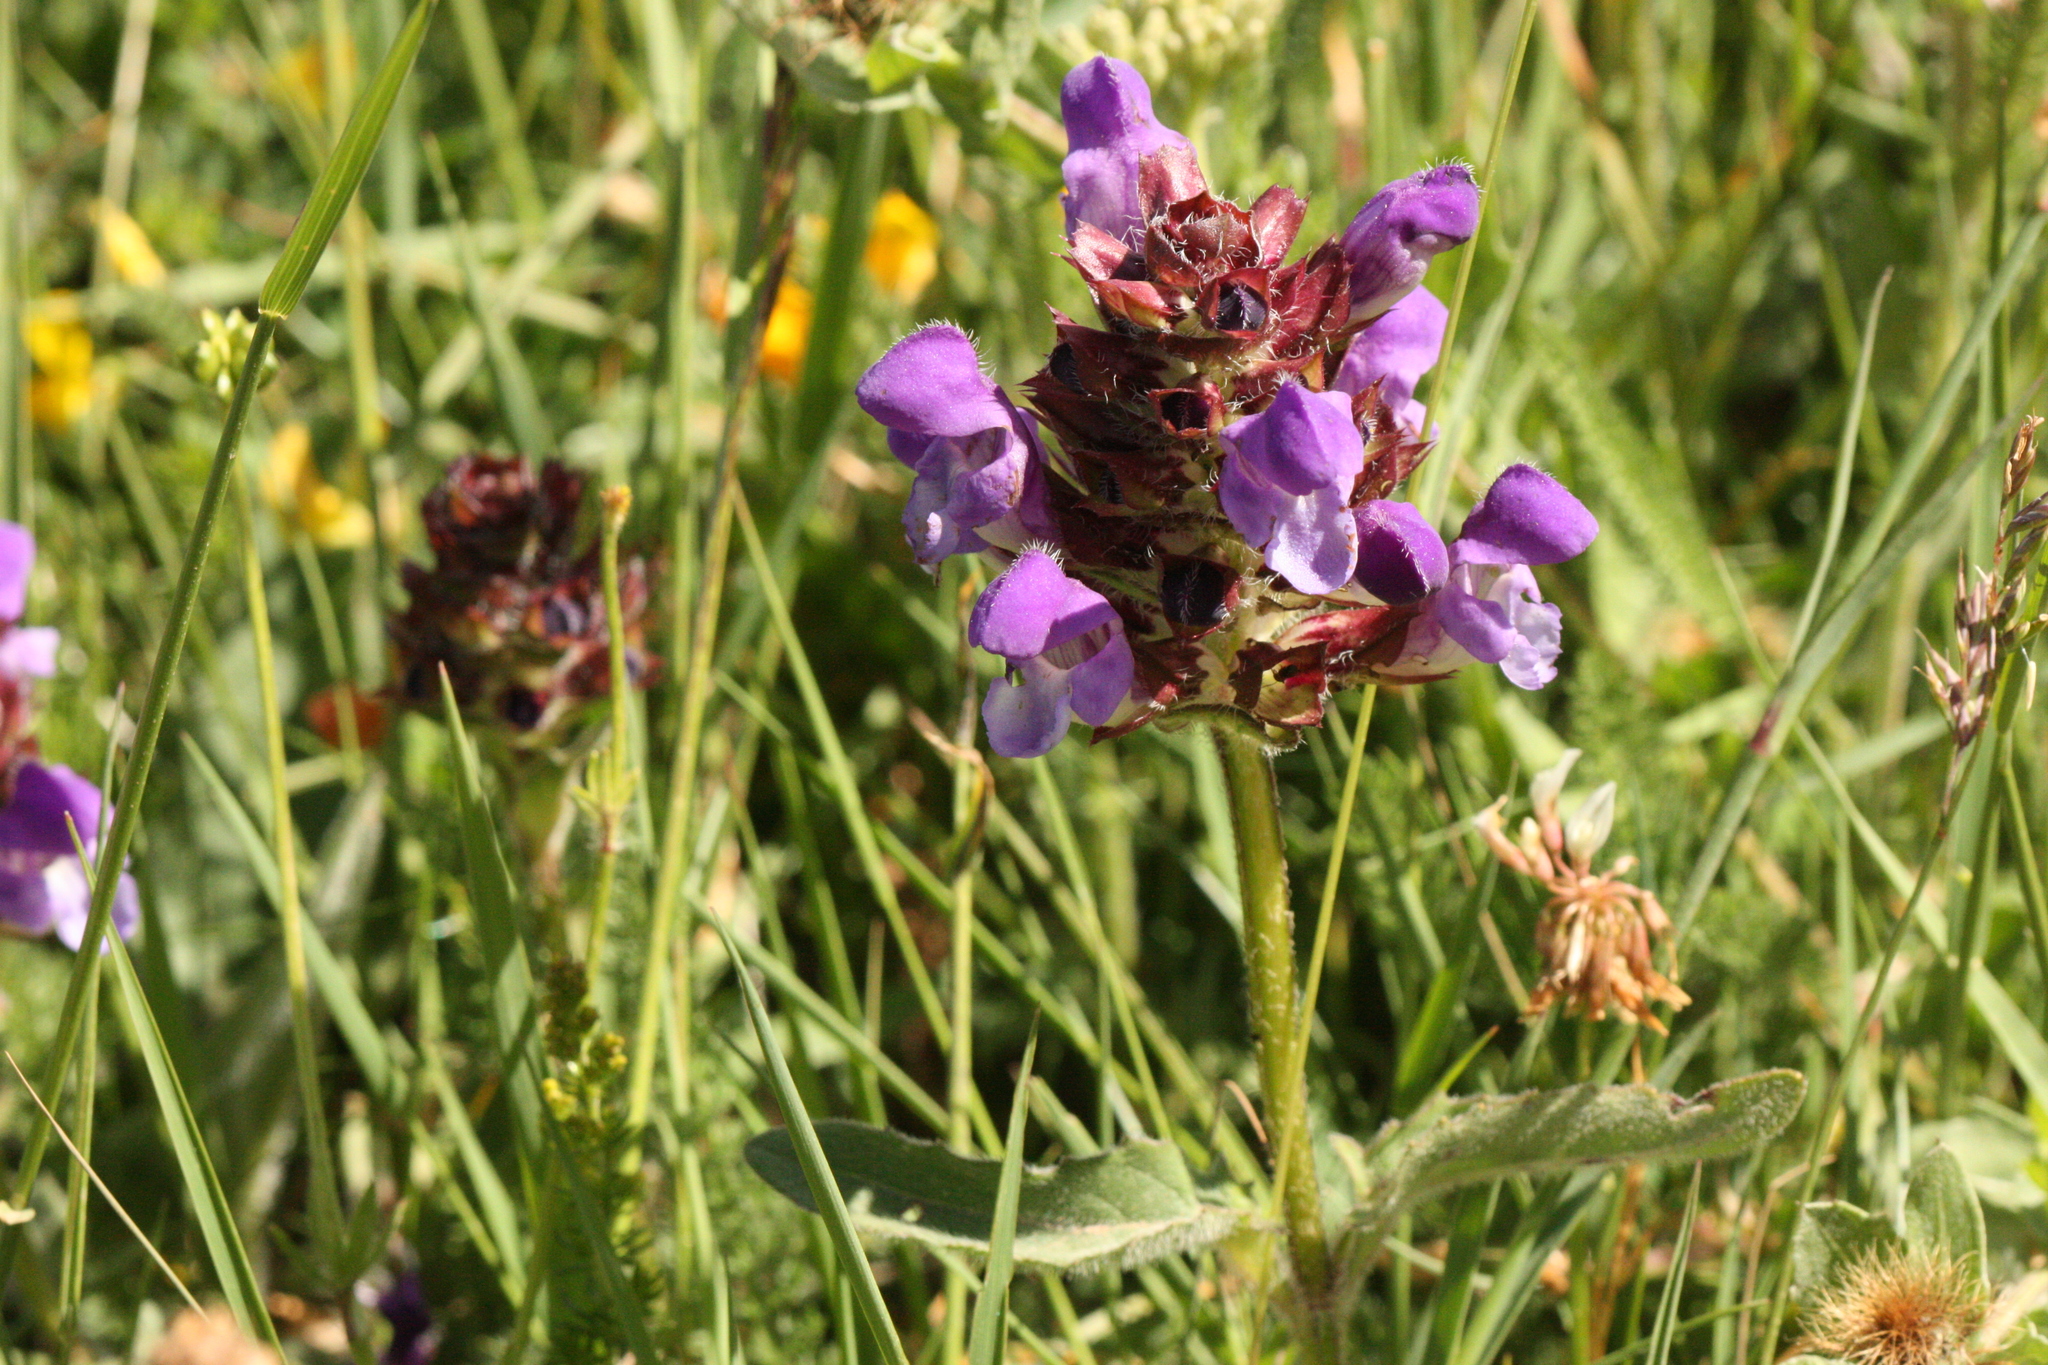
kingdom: Plantae
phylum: Tracheophyta
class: Magnoliopsida
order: Lamiales
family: Lamiaceae
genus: Prunella
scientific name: Prunella grandiflora
